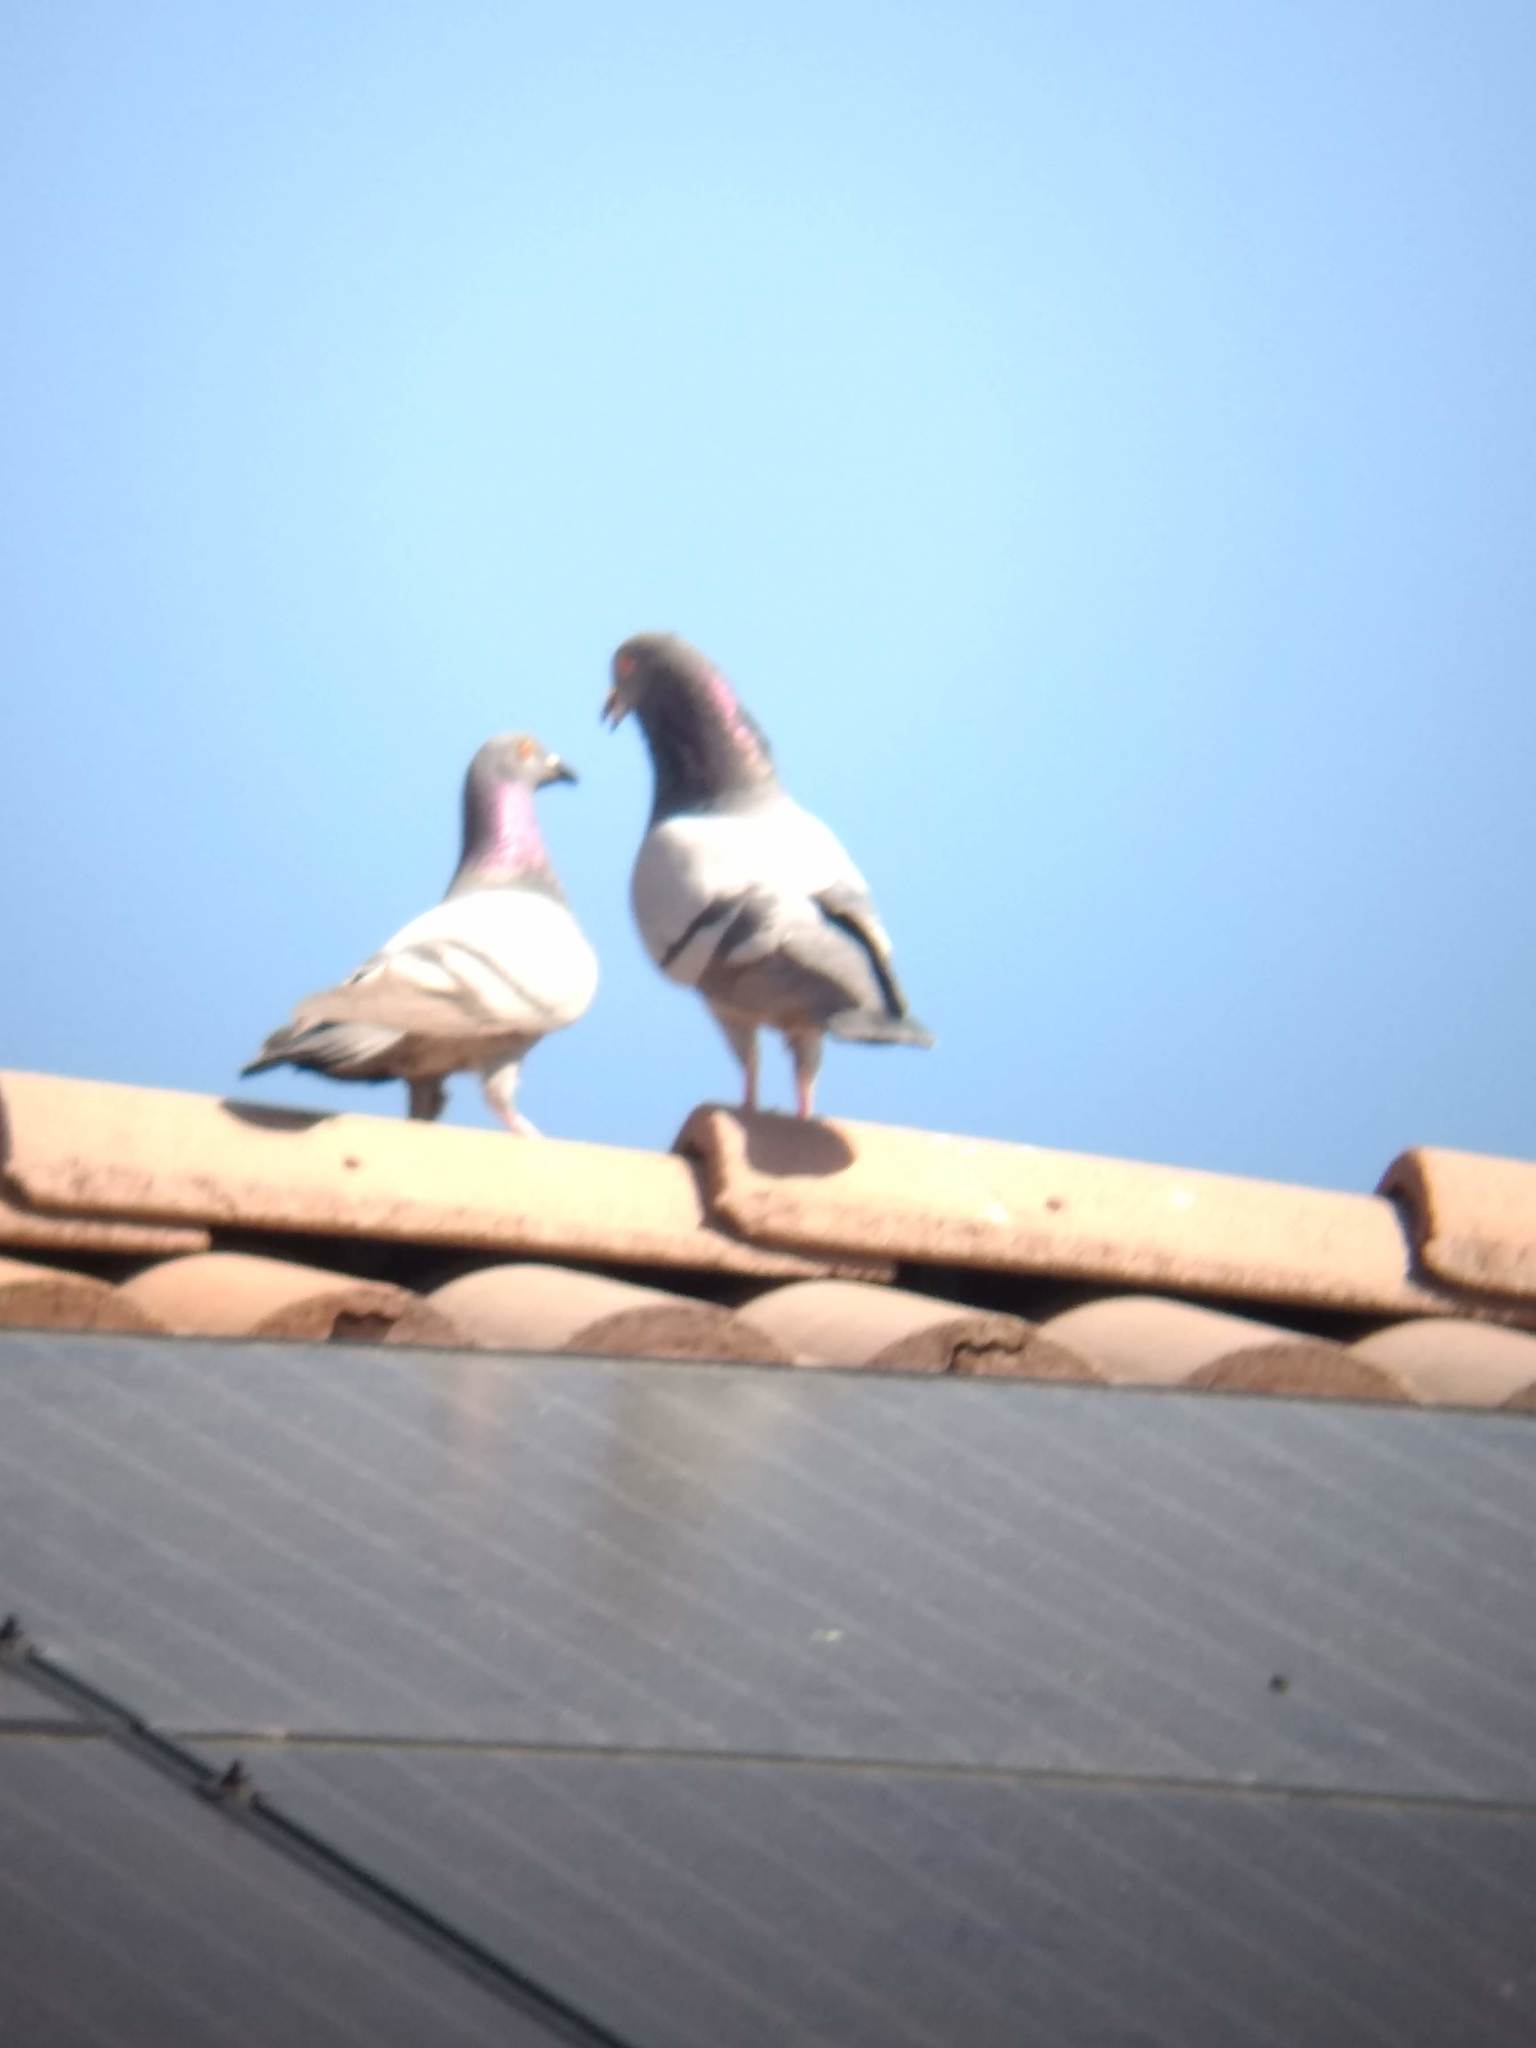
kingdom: Animalia
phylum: Chordata
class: Aves
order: Columbiformes
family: Columbidae
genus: Columba
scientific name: Columba livia
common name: Rock pigeon
